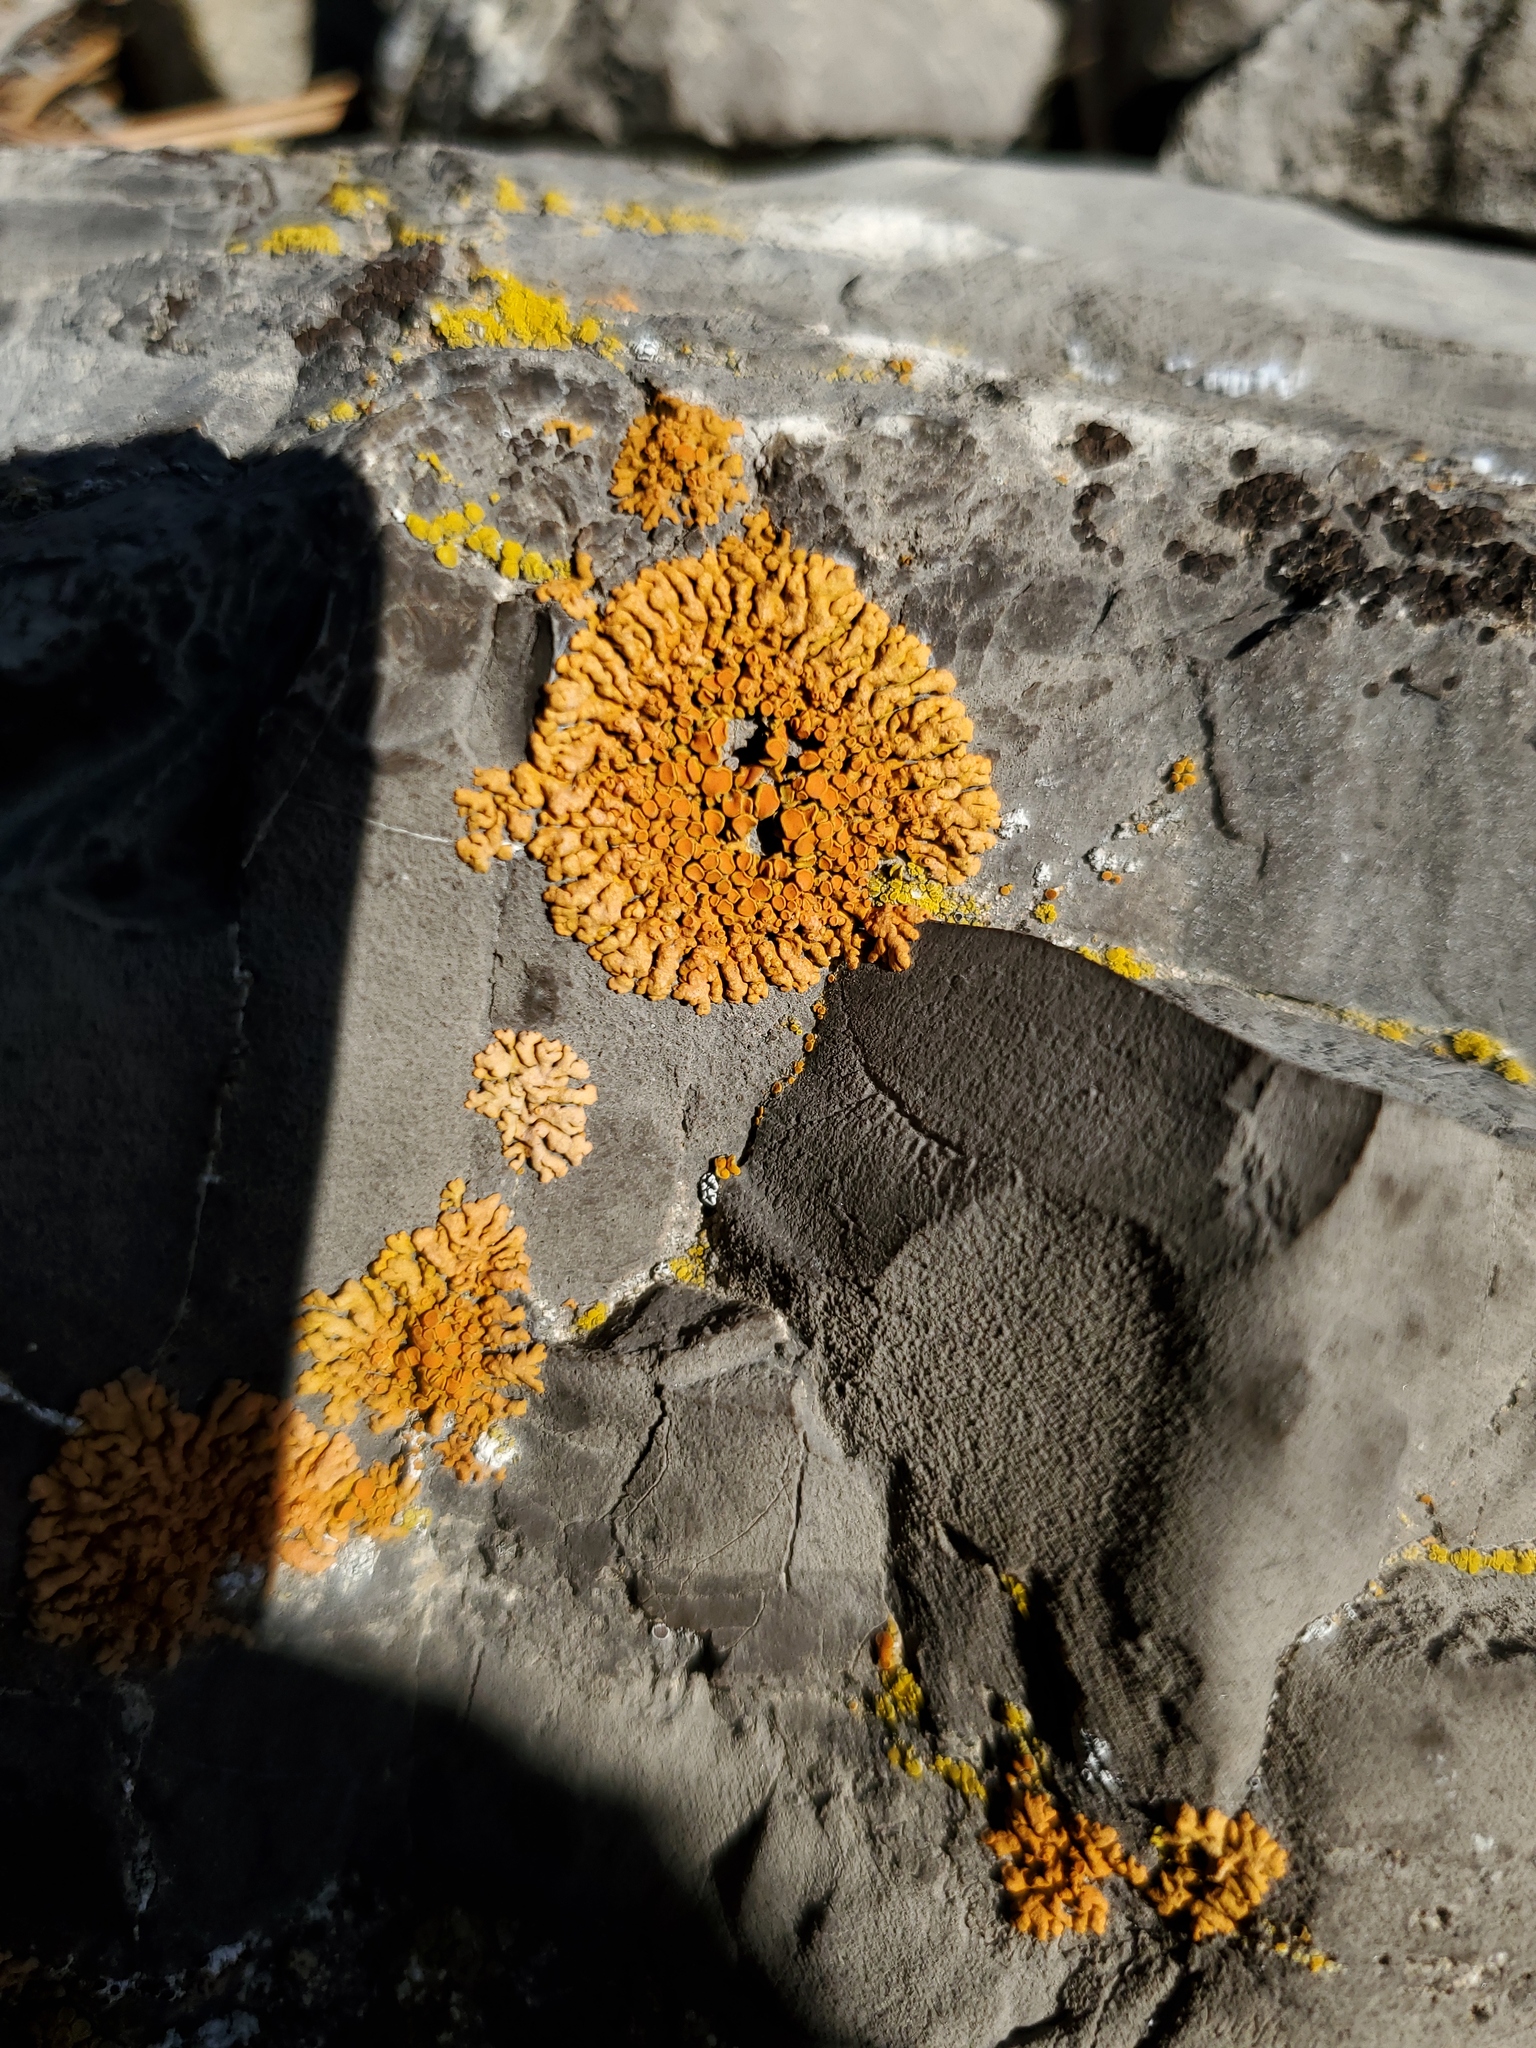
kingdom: Fungi
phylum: Ascomycota
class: Lecanoromycetes
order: Teloschistales
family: Teloschistaceae
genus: Xanthoria
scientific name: Xanthoria elegans
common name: Elegant sunburst lichen
